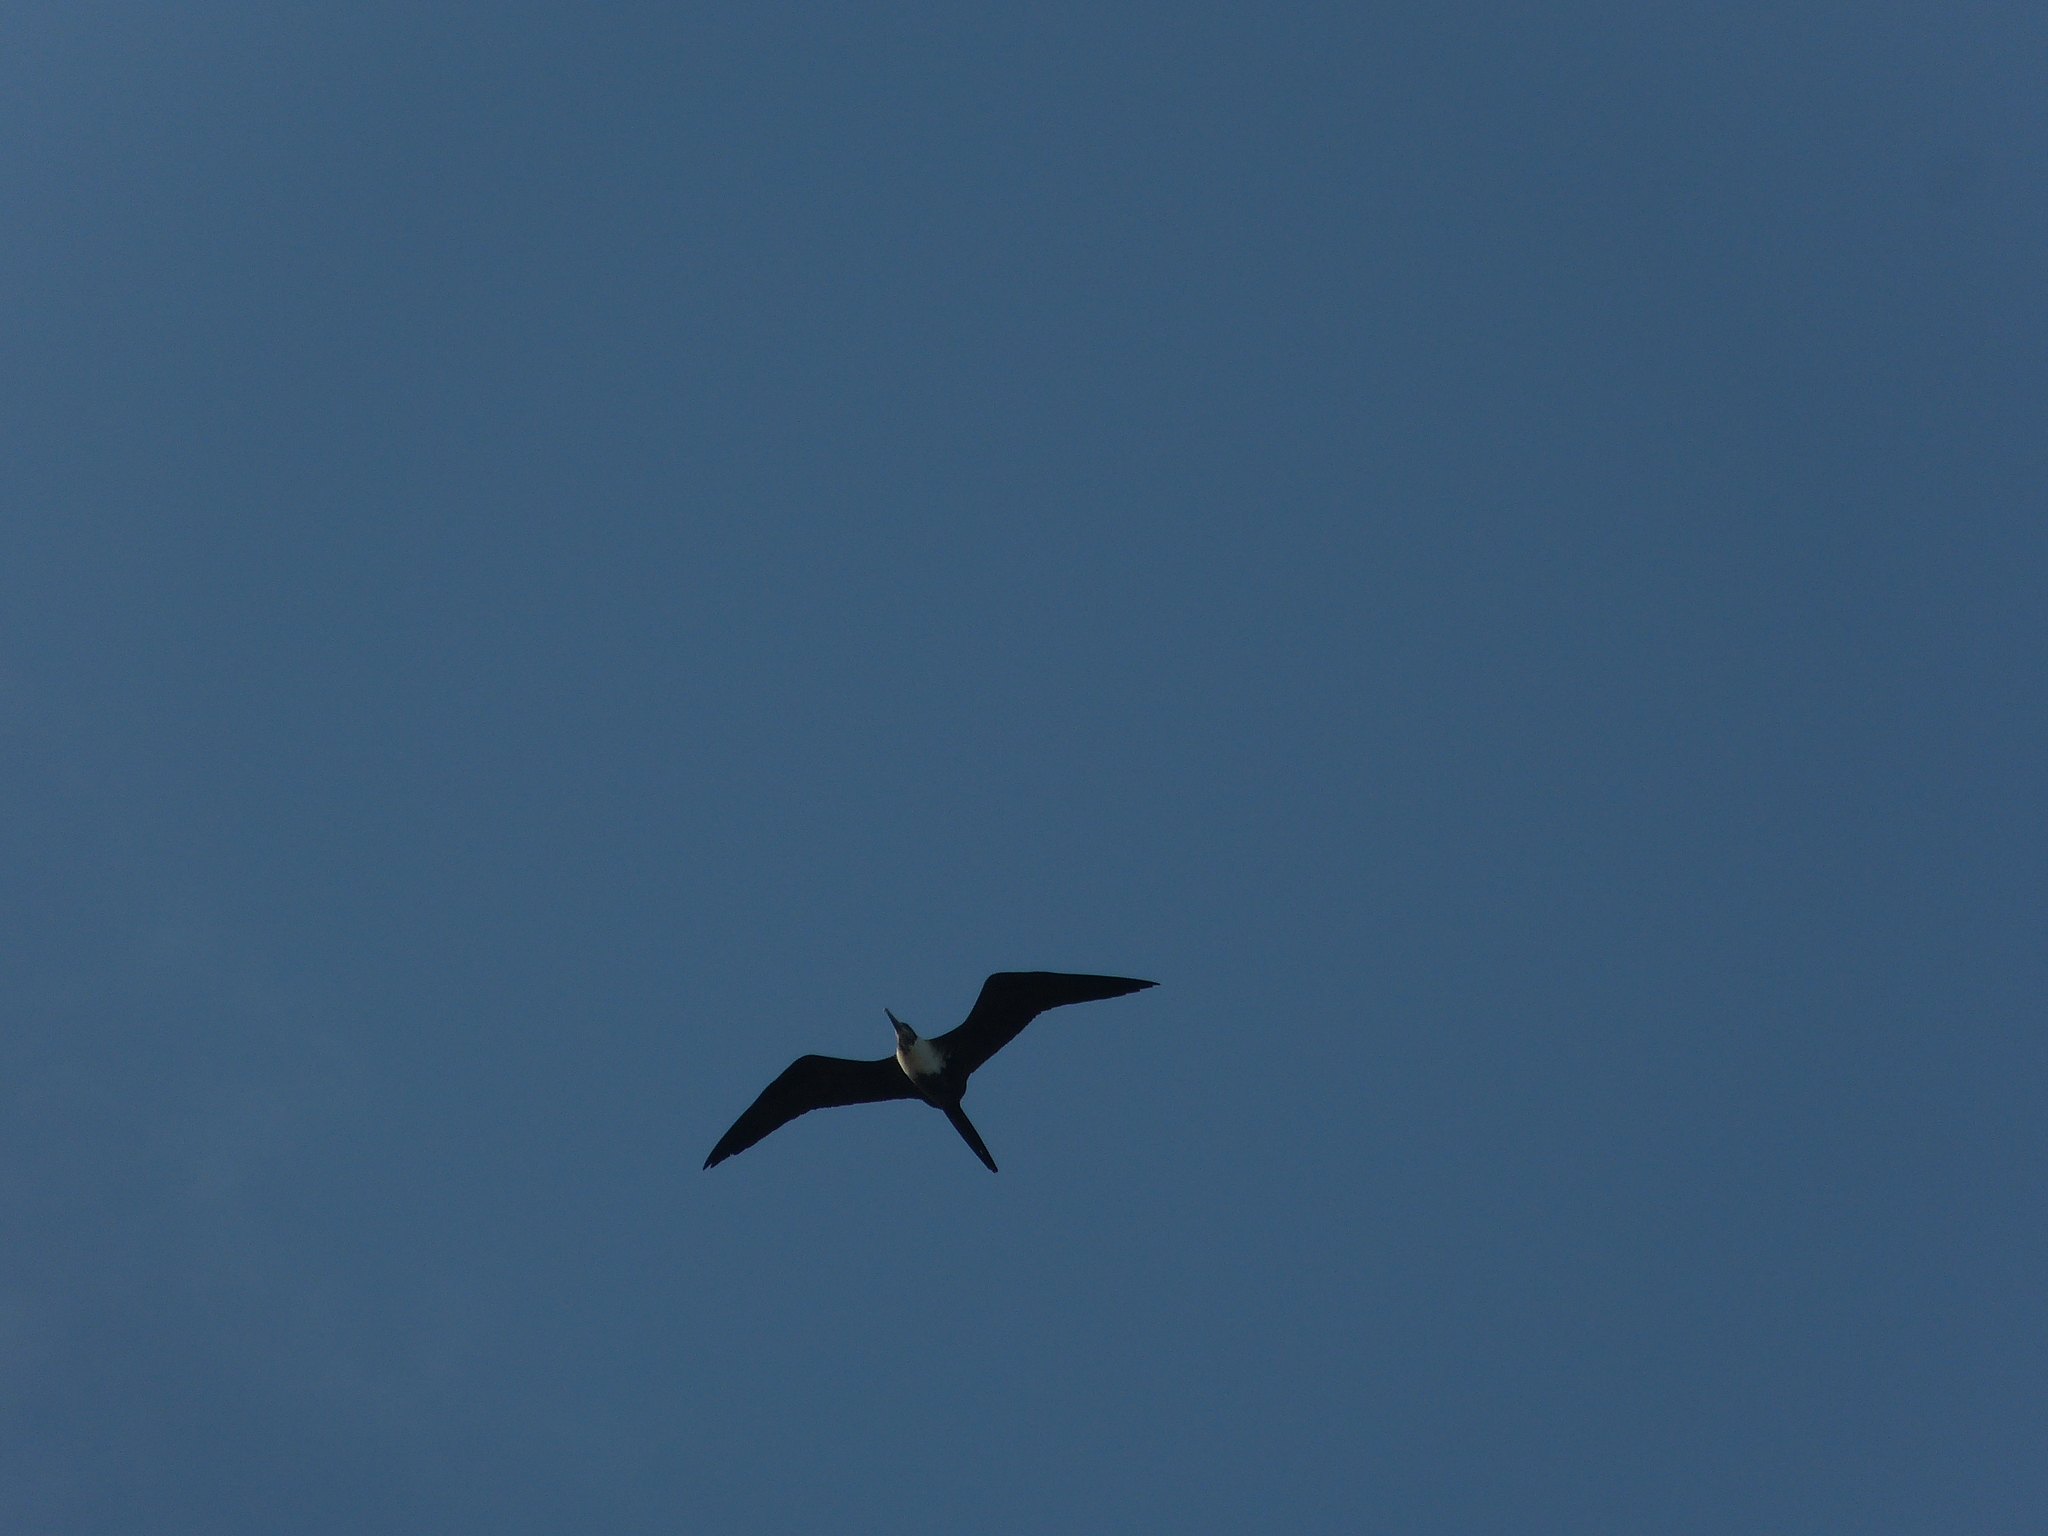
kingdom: Animalia
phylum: Chordata
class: Aves
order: Suliformes
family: Fregatidae
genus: Fregata
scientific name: Fregata magnificens
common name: Magnificent frigatebird
